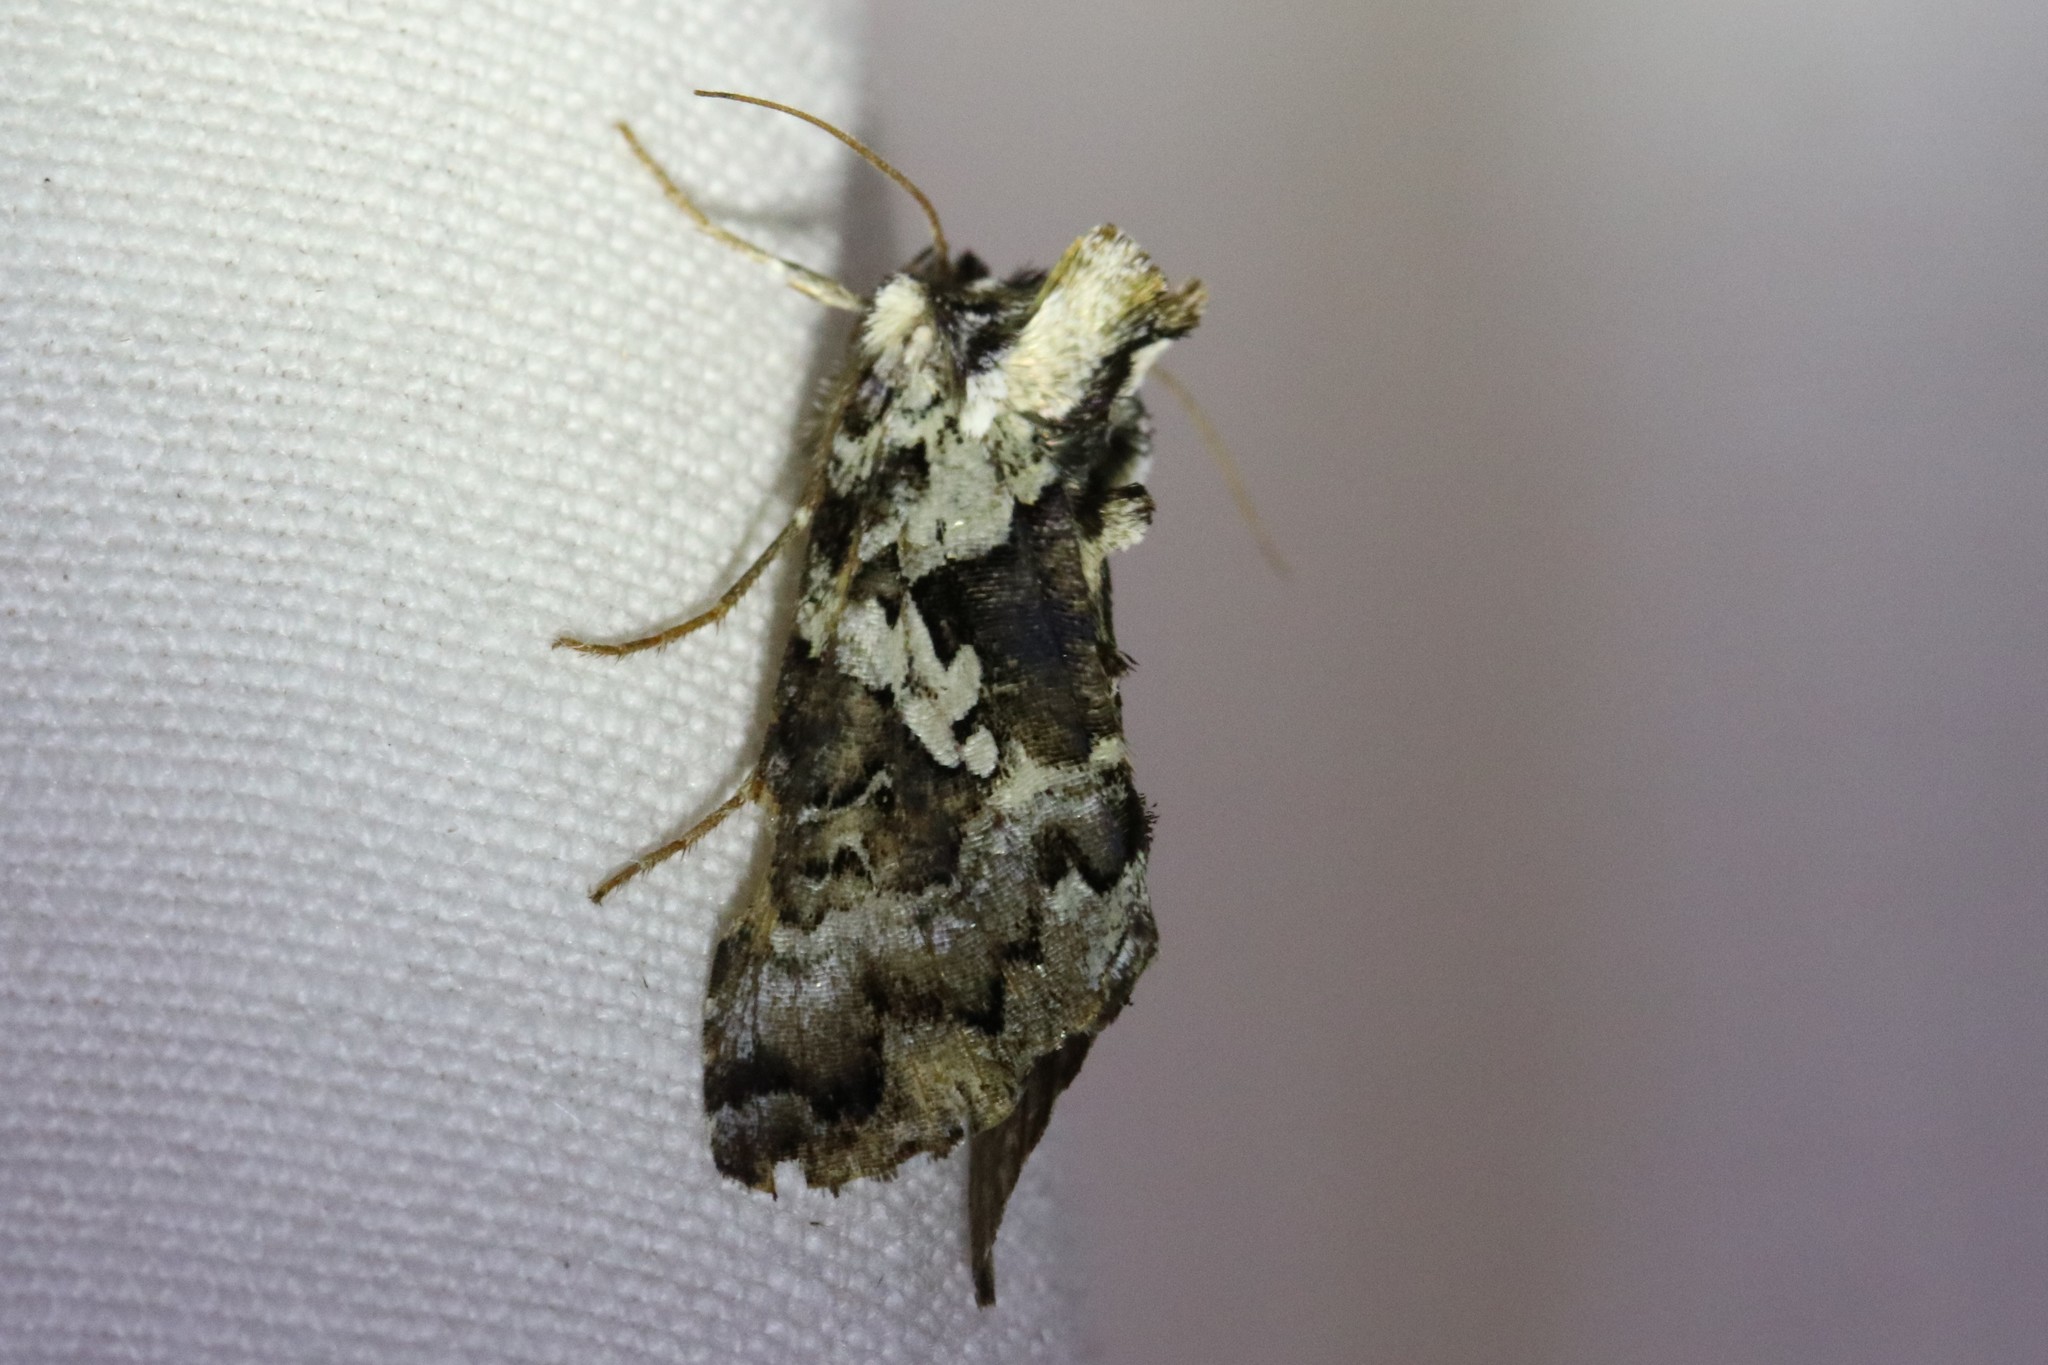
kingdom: Animalia
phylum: Arthropoda
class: Insecta
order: Lepidoptera
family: Noctuidae
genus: Syngrapha
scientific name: Syngrapha rectangula
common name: Angulated cutworm
